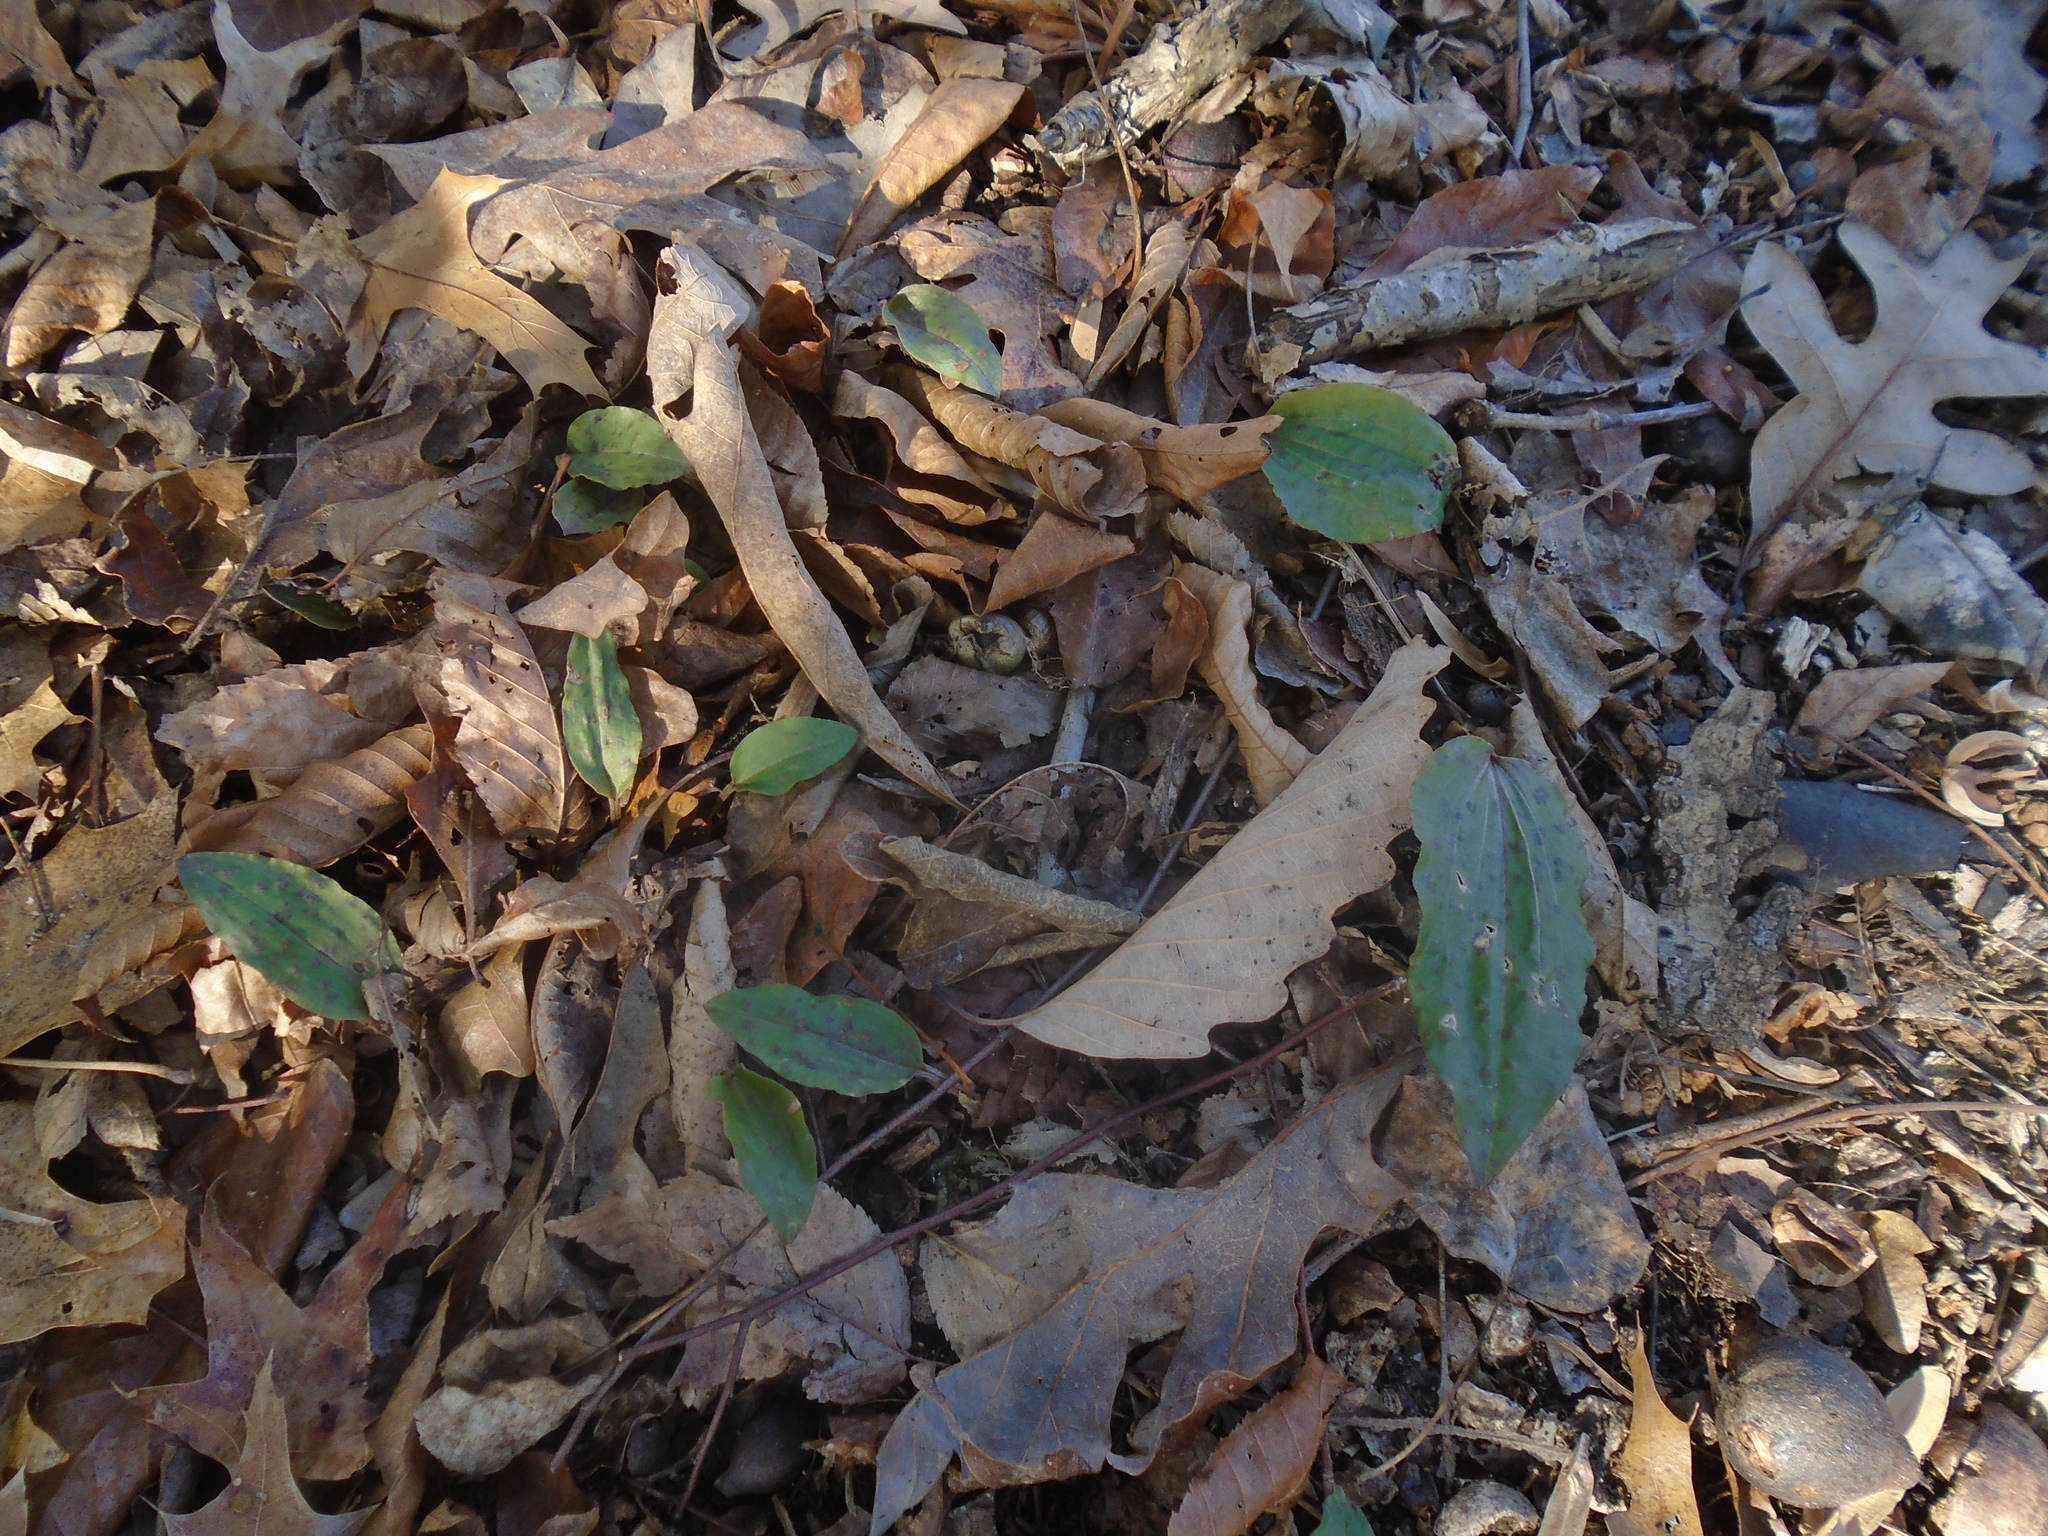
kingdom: Plantae
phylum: Tracheophyta
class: Liliopsida
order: Asparagales
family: Orchidaceae
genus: Tipularia
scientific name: Tipularia discolor
